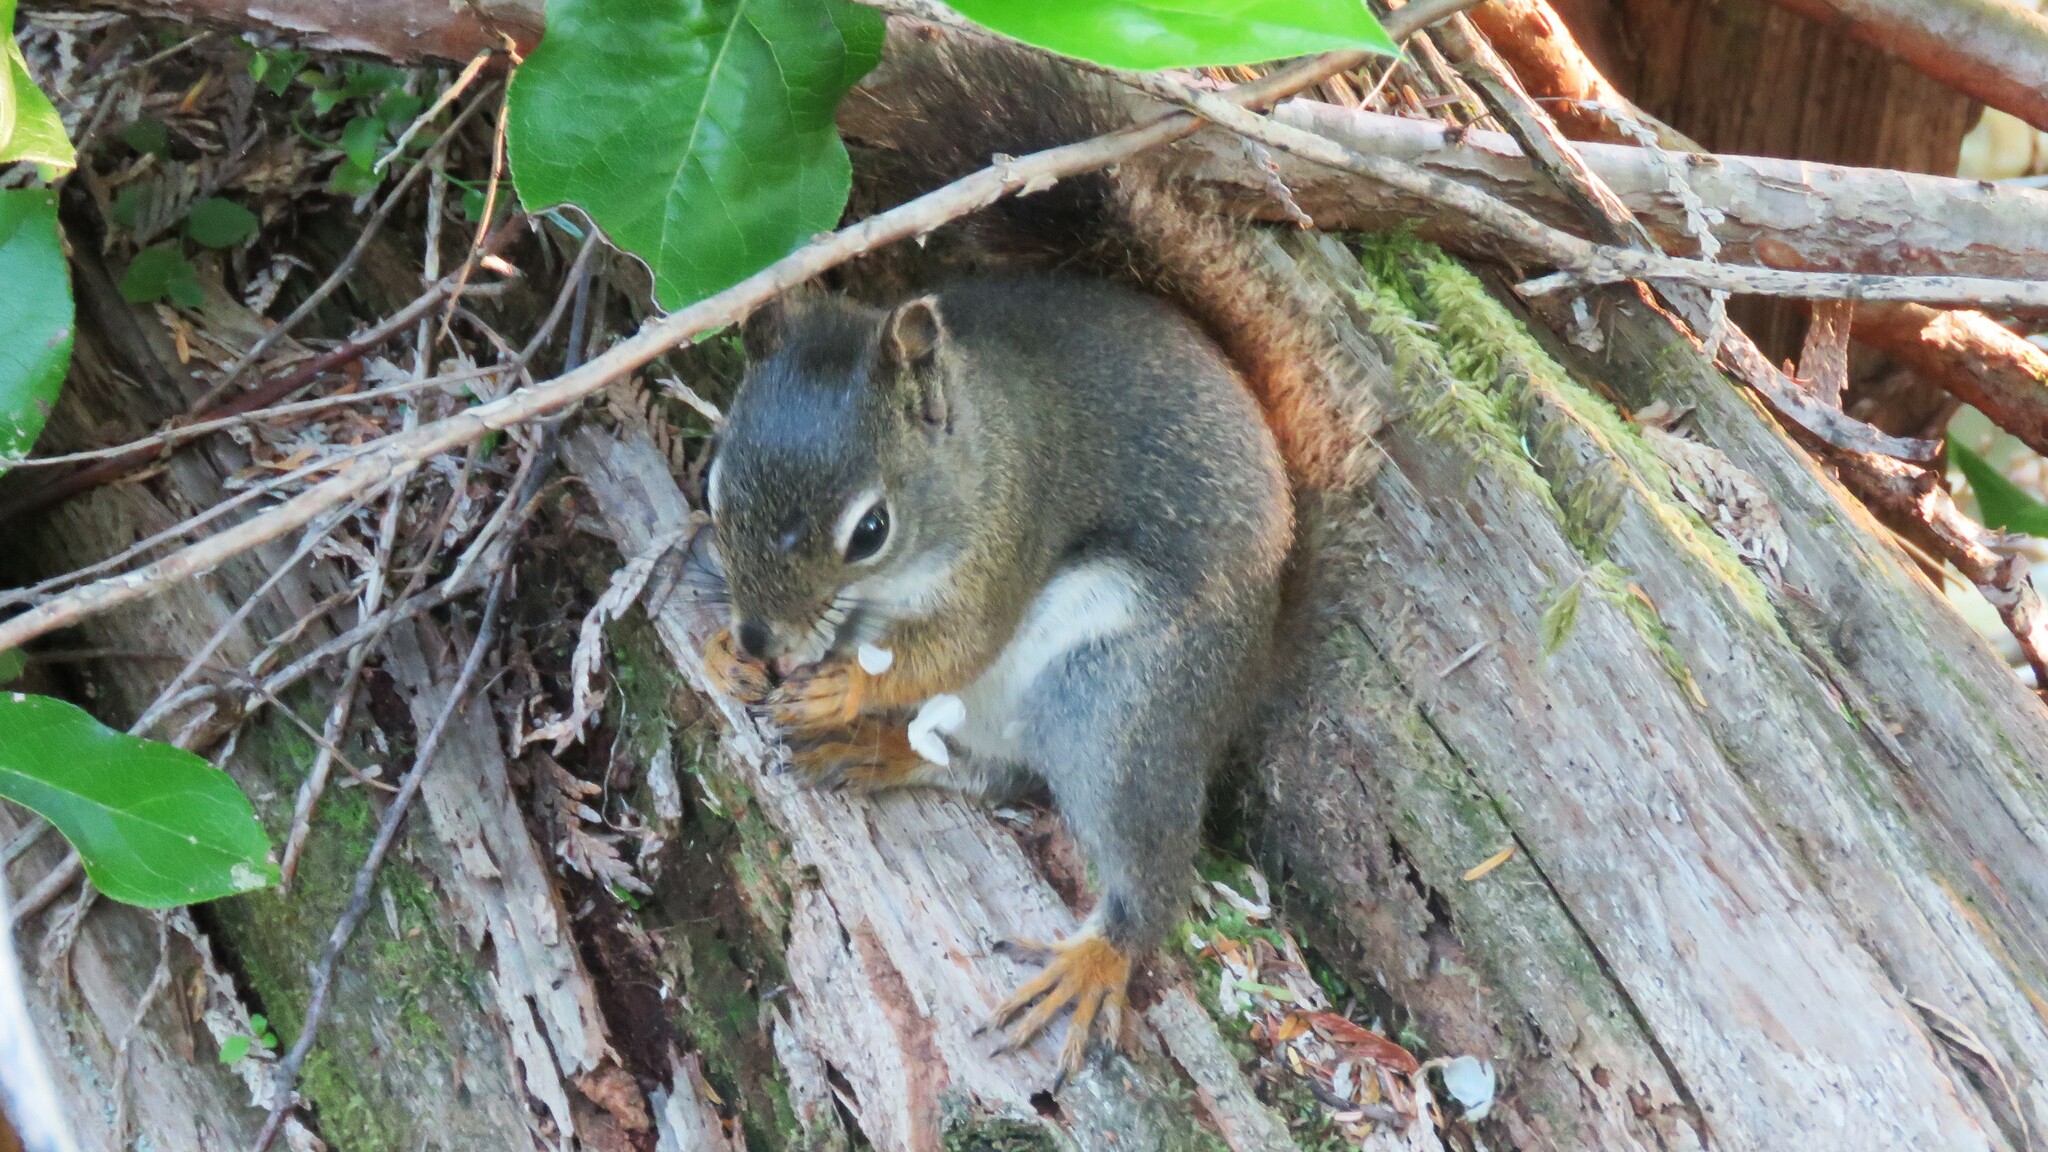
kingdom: Animalia
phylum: Chordata
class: Mammalia
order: Rodentia
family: Sciuridae
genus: Tamiasciurus
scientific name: Tamiasciurus hudsonicus
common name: Red squirrel
